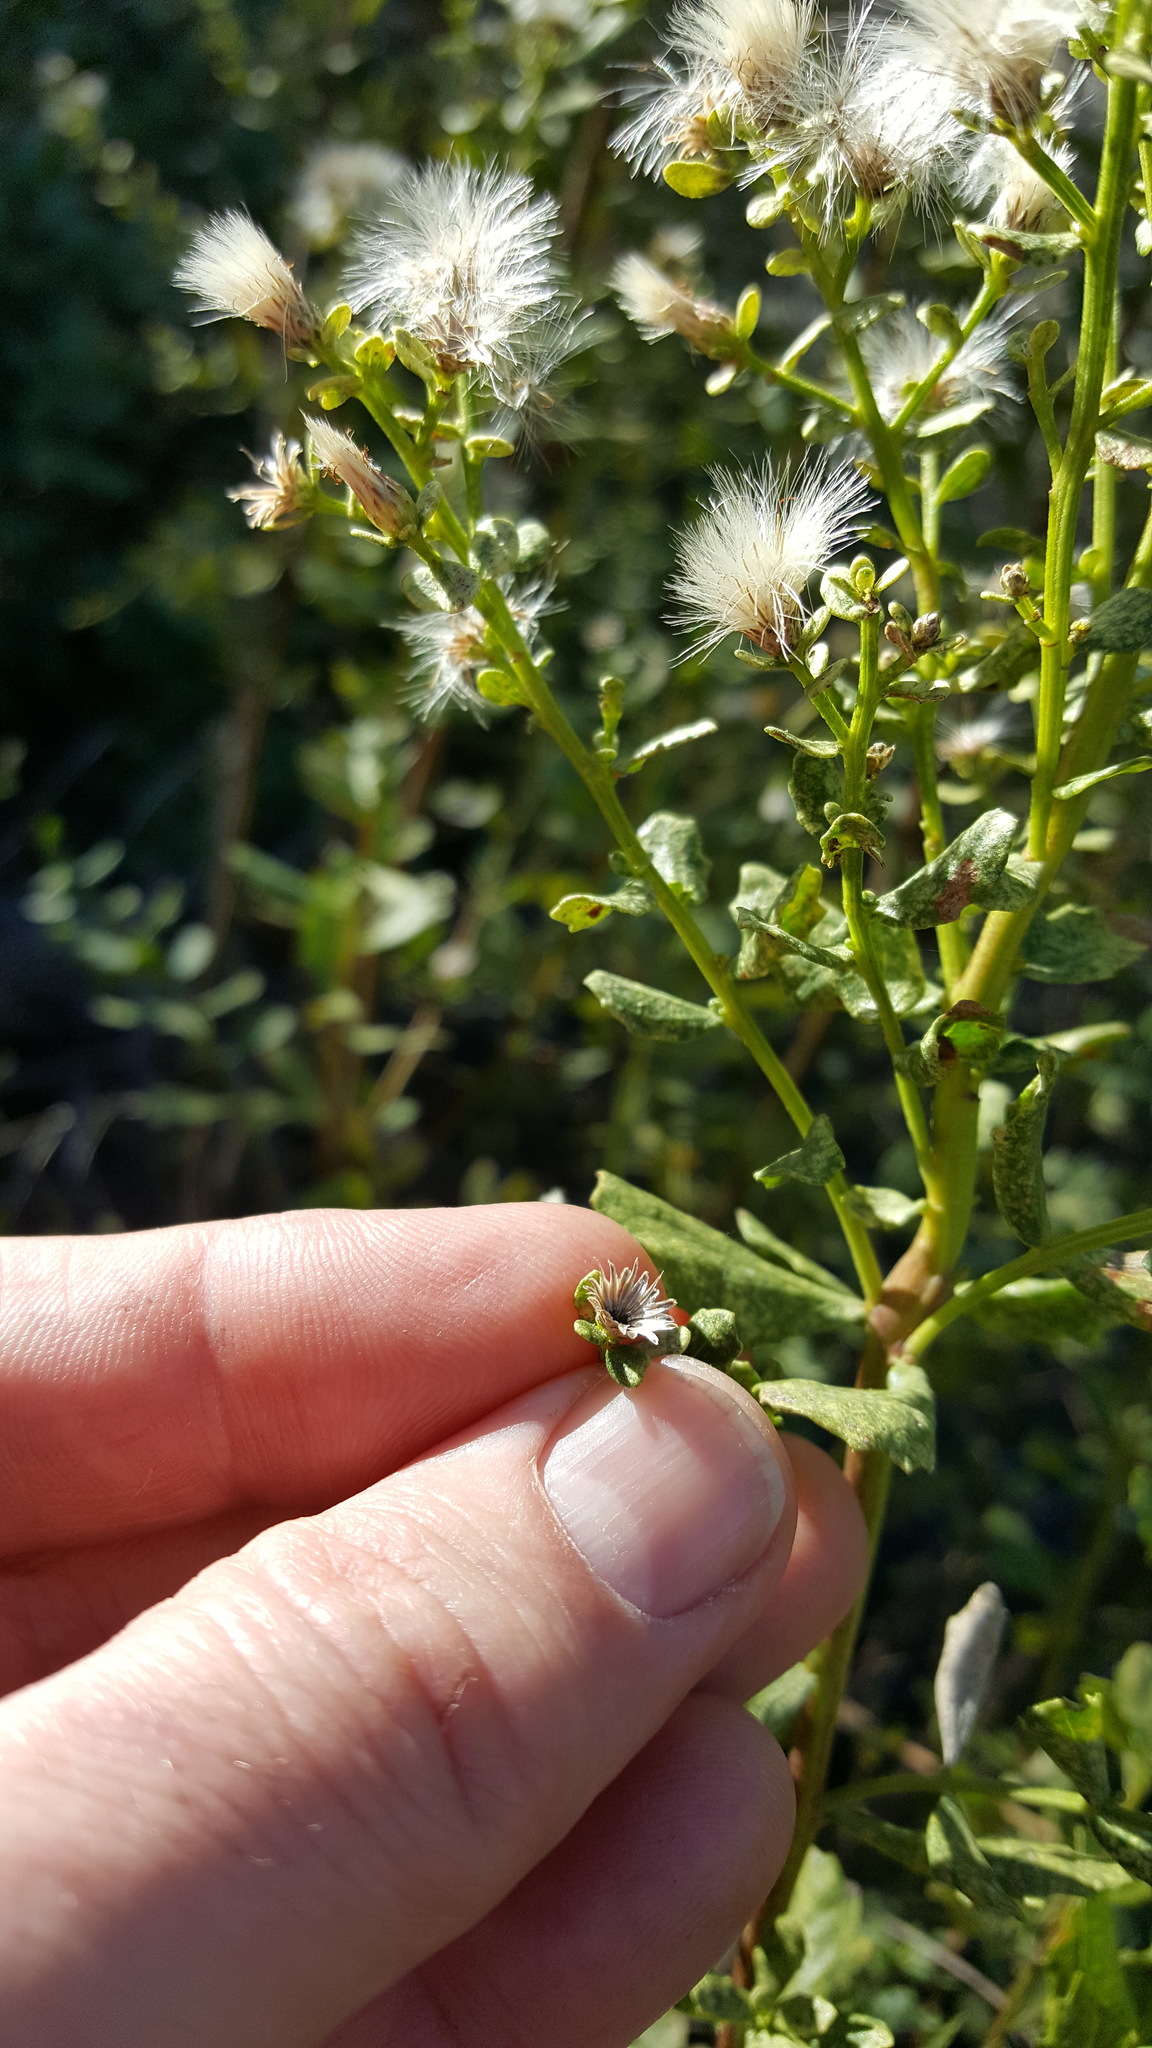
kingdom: Plantae
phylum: Tracheophyta
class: Magnoliopsida
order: Asterales
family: Asteraceae
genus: Baccharis
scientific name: Baccharis pilularis
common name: Coyotebrush
